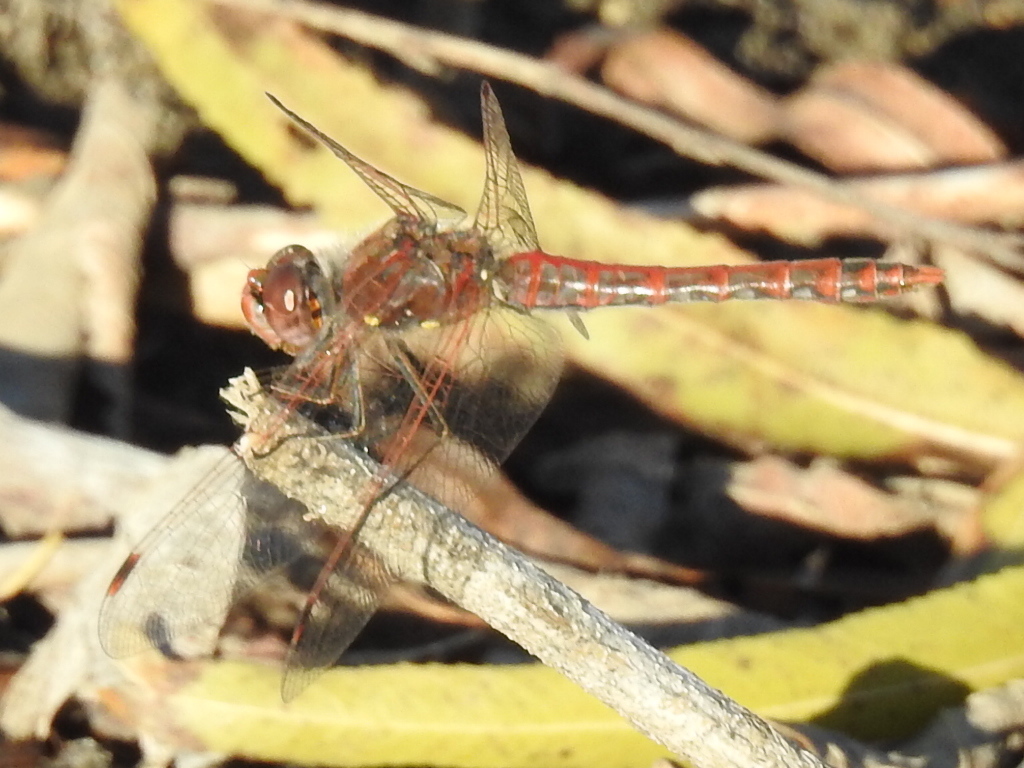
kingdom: Animalia
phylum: Arthropoda
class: Insecta
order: Odonata
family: Libellulidae
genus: Sympetrum
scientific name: Sympetrum corruptum
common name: Variegated meadowhawk
